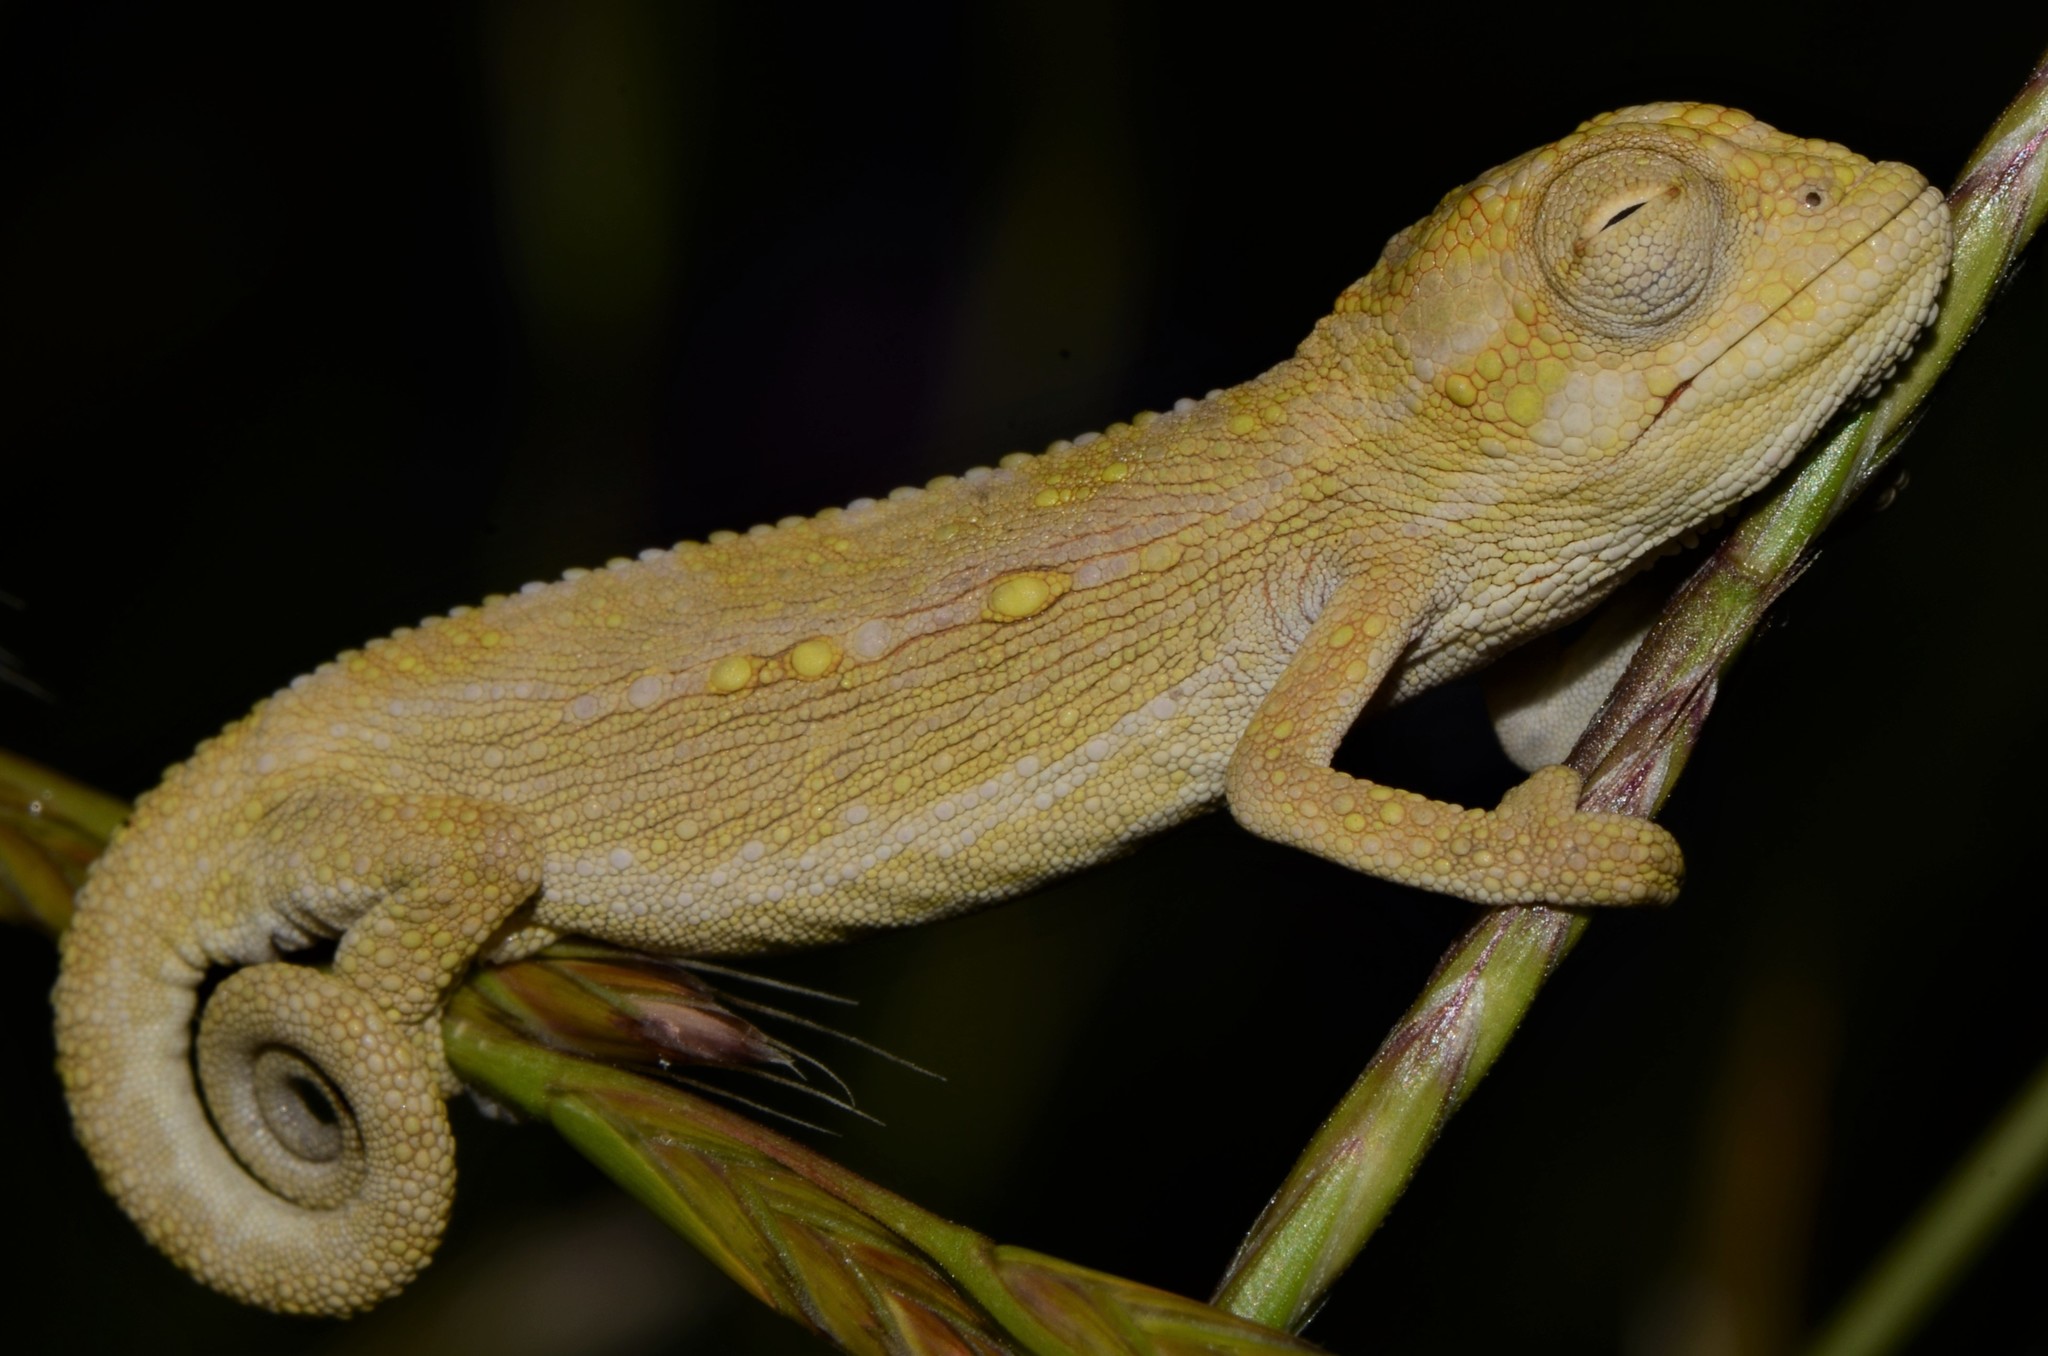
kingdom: Animalia
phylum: Chordata
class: Squamata
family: Chamaeleonidae
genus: Bradypodion
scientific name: Bradypodion pumilum
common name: Cape dwarf chameleon
